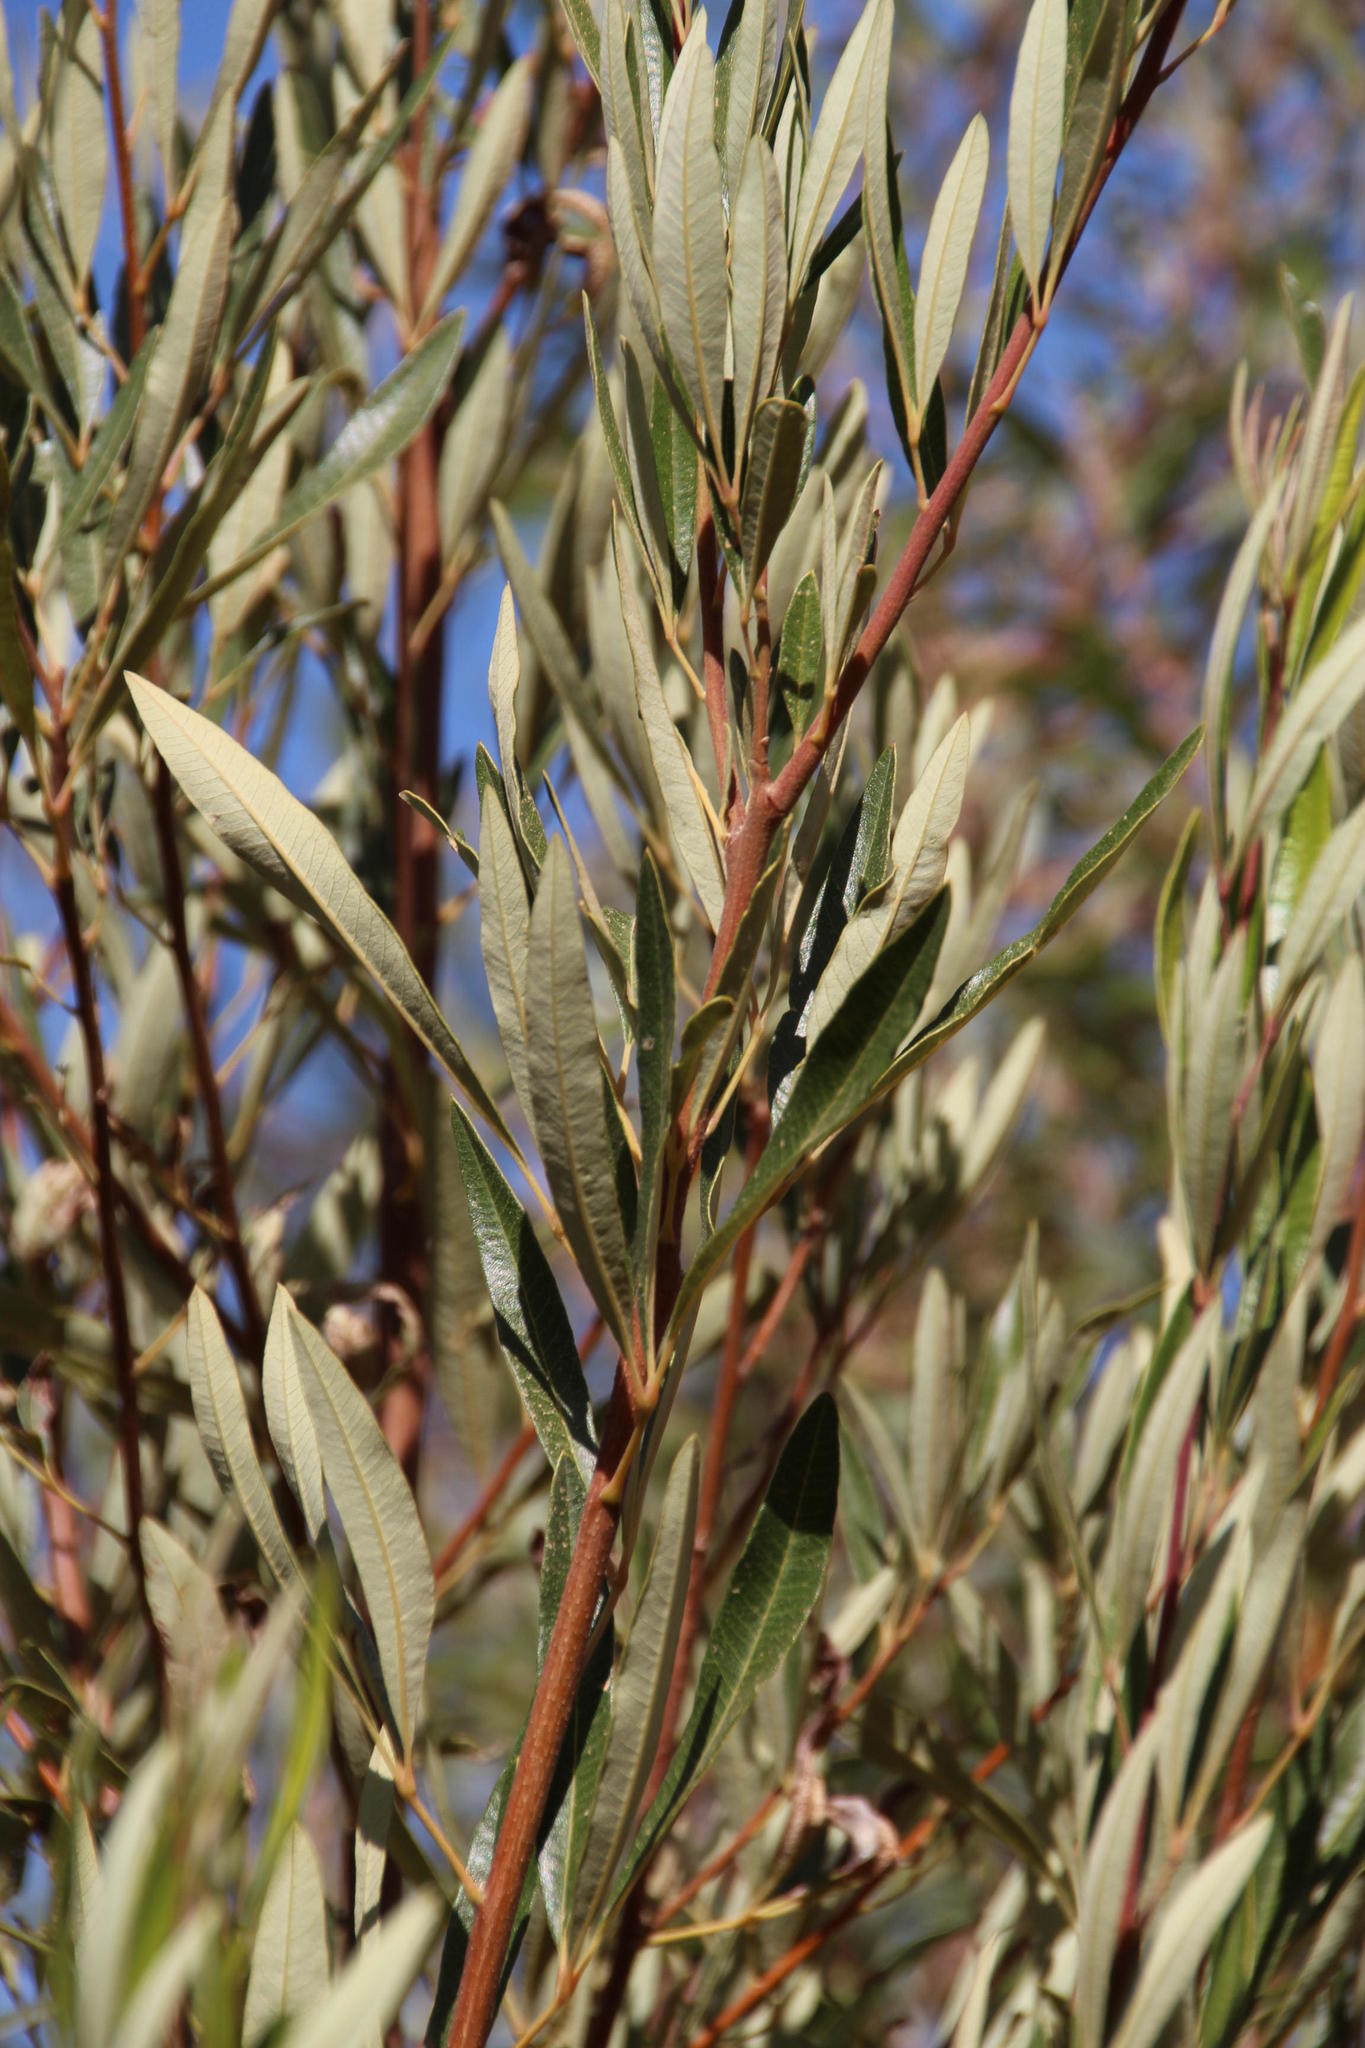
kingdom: Plantae
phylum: Tracheophyta
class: Magnoliopsida
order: Sapindales
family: Anacardiaceae
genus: Searsia
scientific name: Searsia angustifolia
